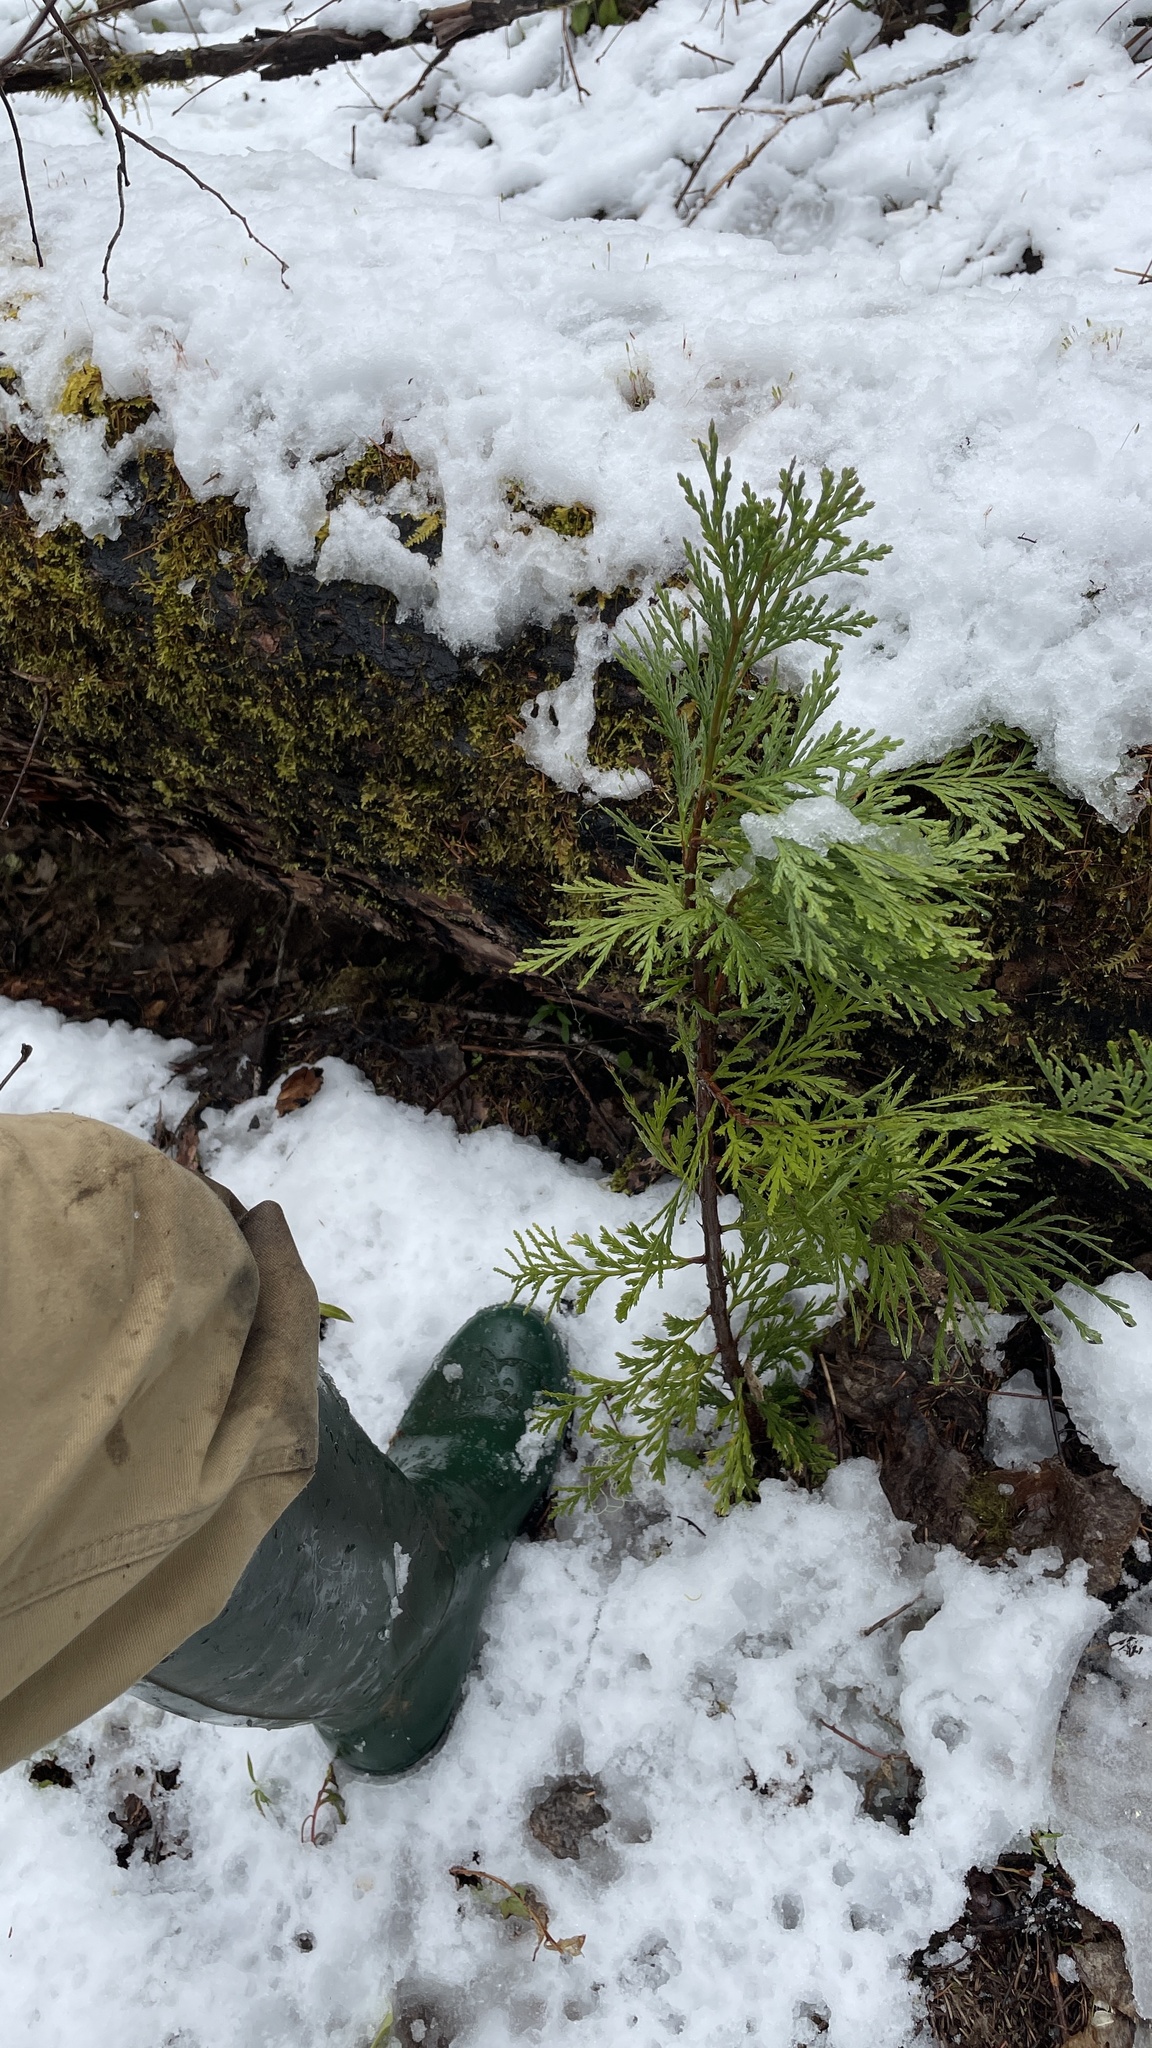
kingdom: Plantae
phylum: Tracheophyta
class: Pinopsida
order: Pinales
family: Cupressaceae
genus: Calocedrus
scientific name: Calocedrus decurrens
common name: Californian incense-cedar
